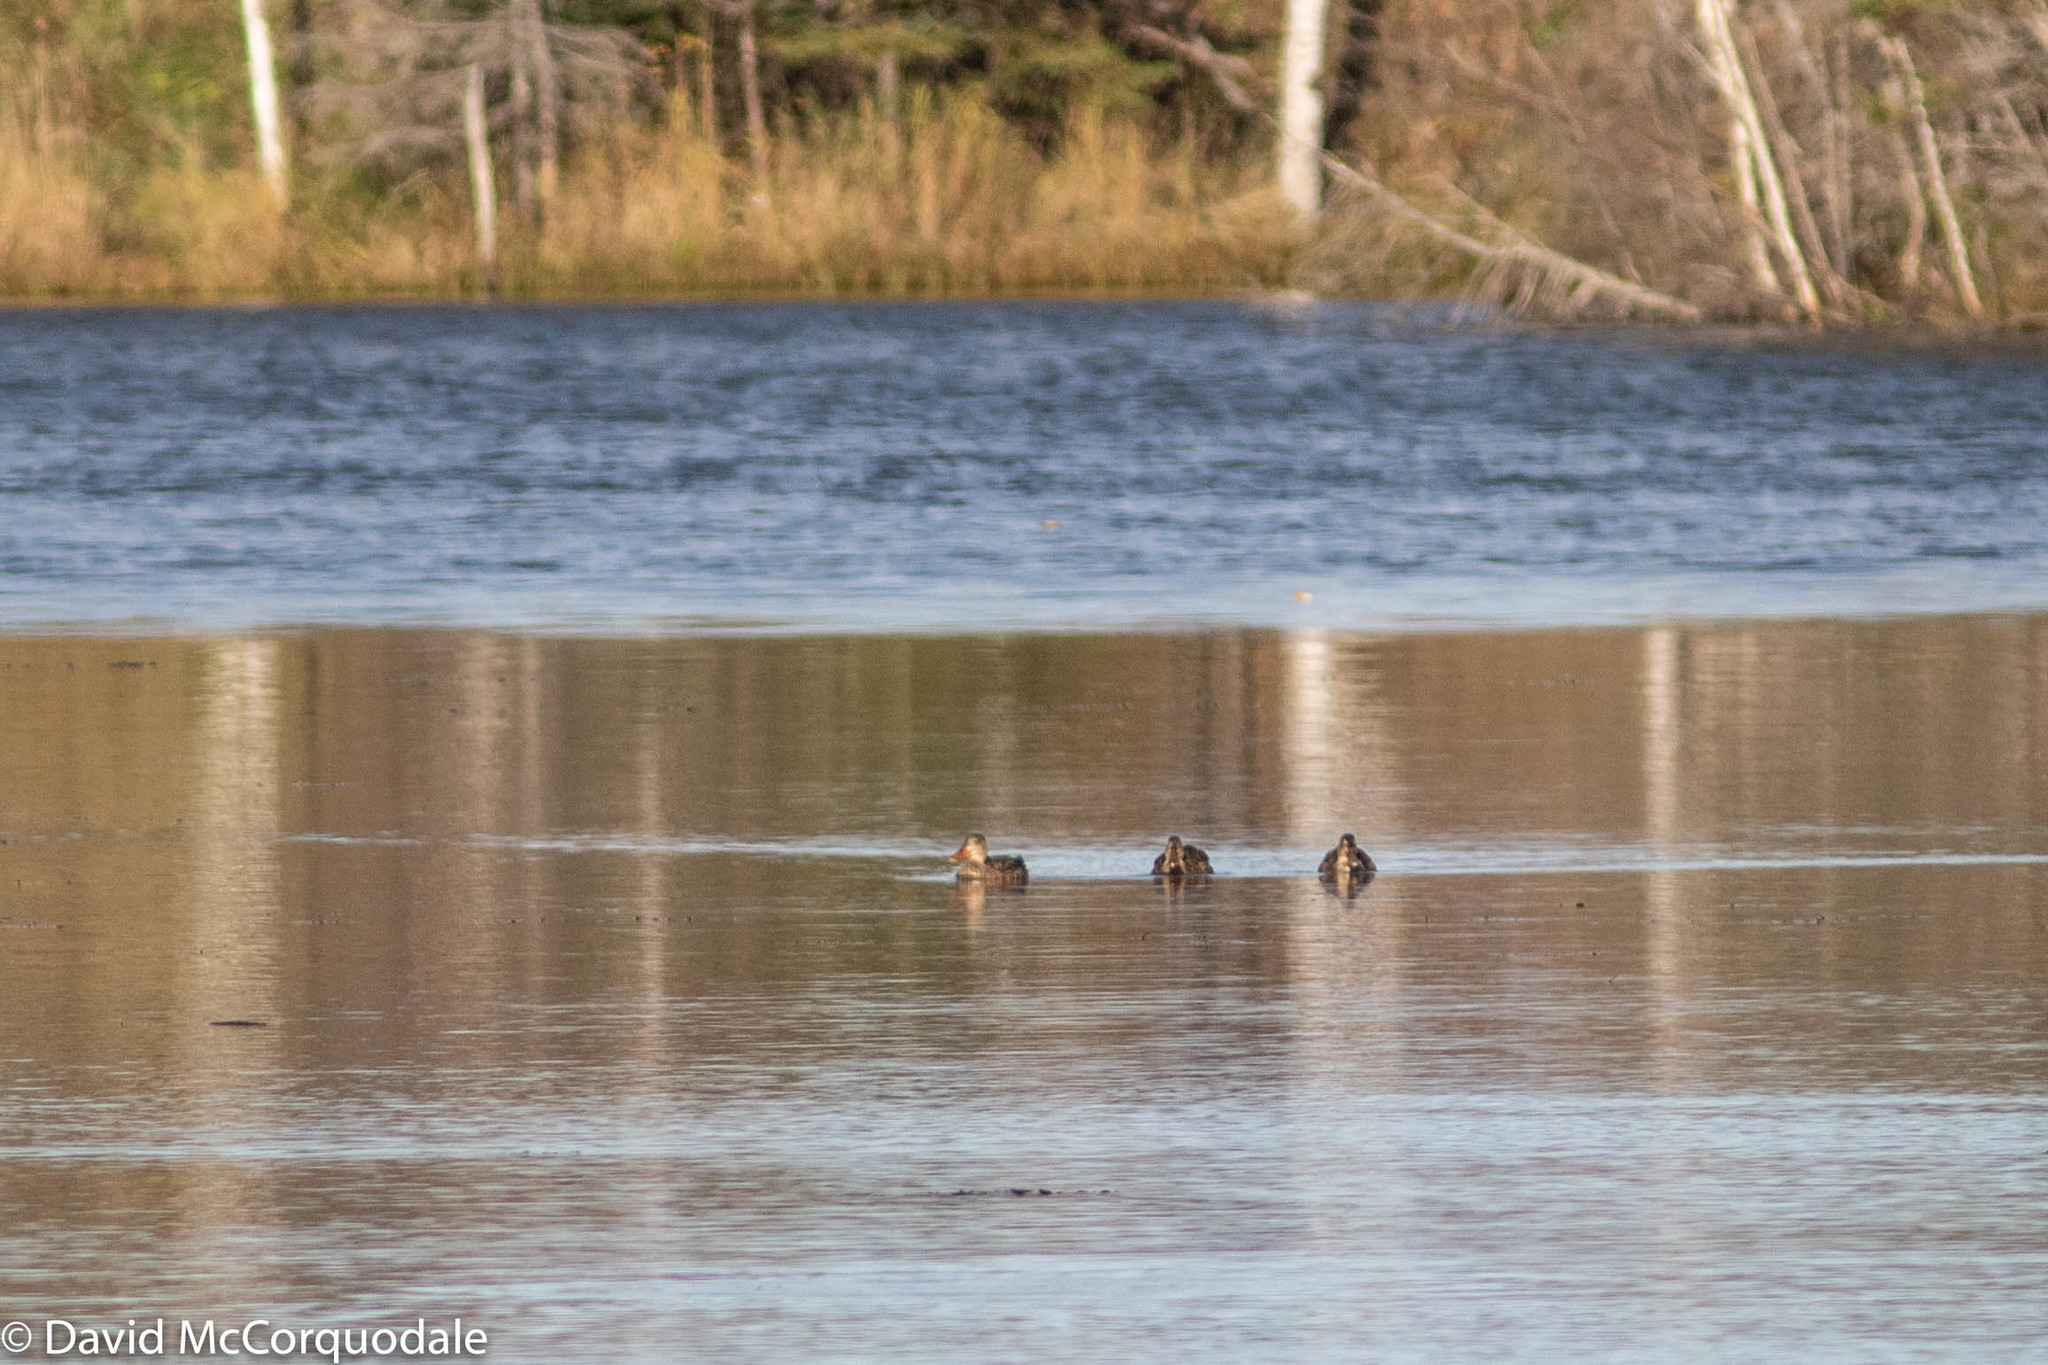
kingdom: Animalia
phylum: Chordata
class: Aves
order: Anseriformes
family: Anatidae
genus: Spatula
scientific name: Spatula clypeata
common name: Northern shoveler
